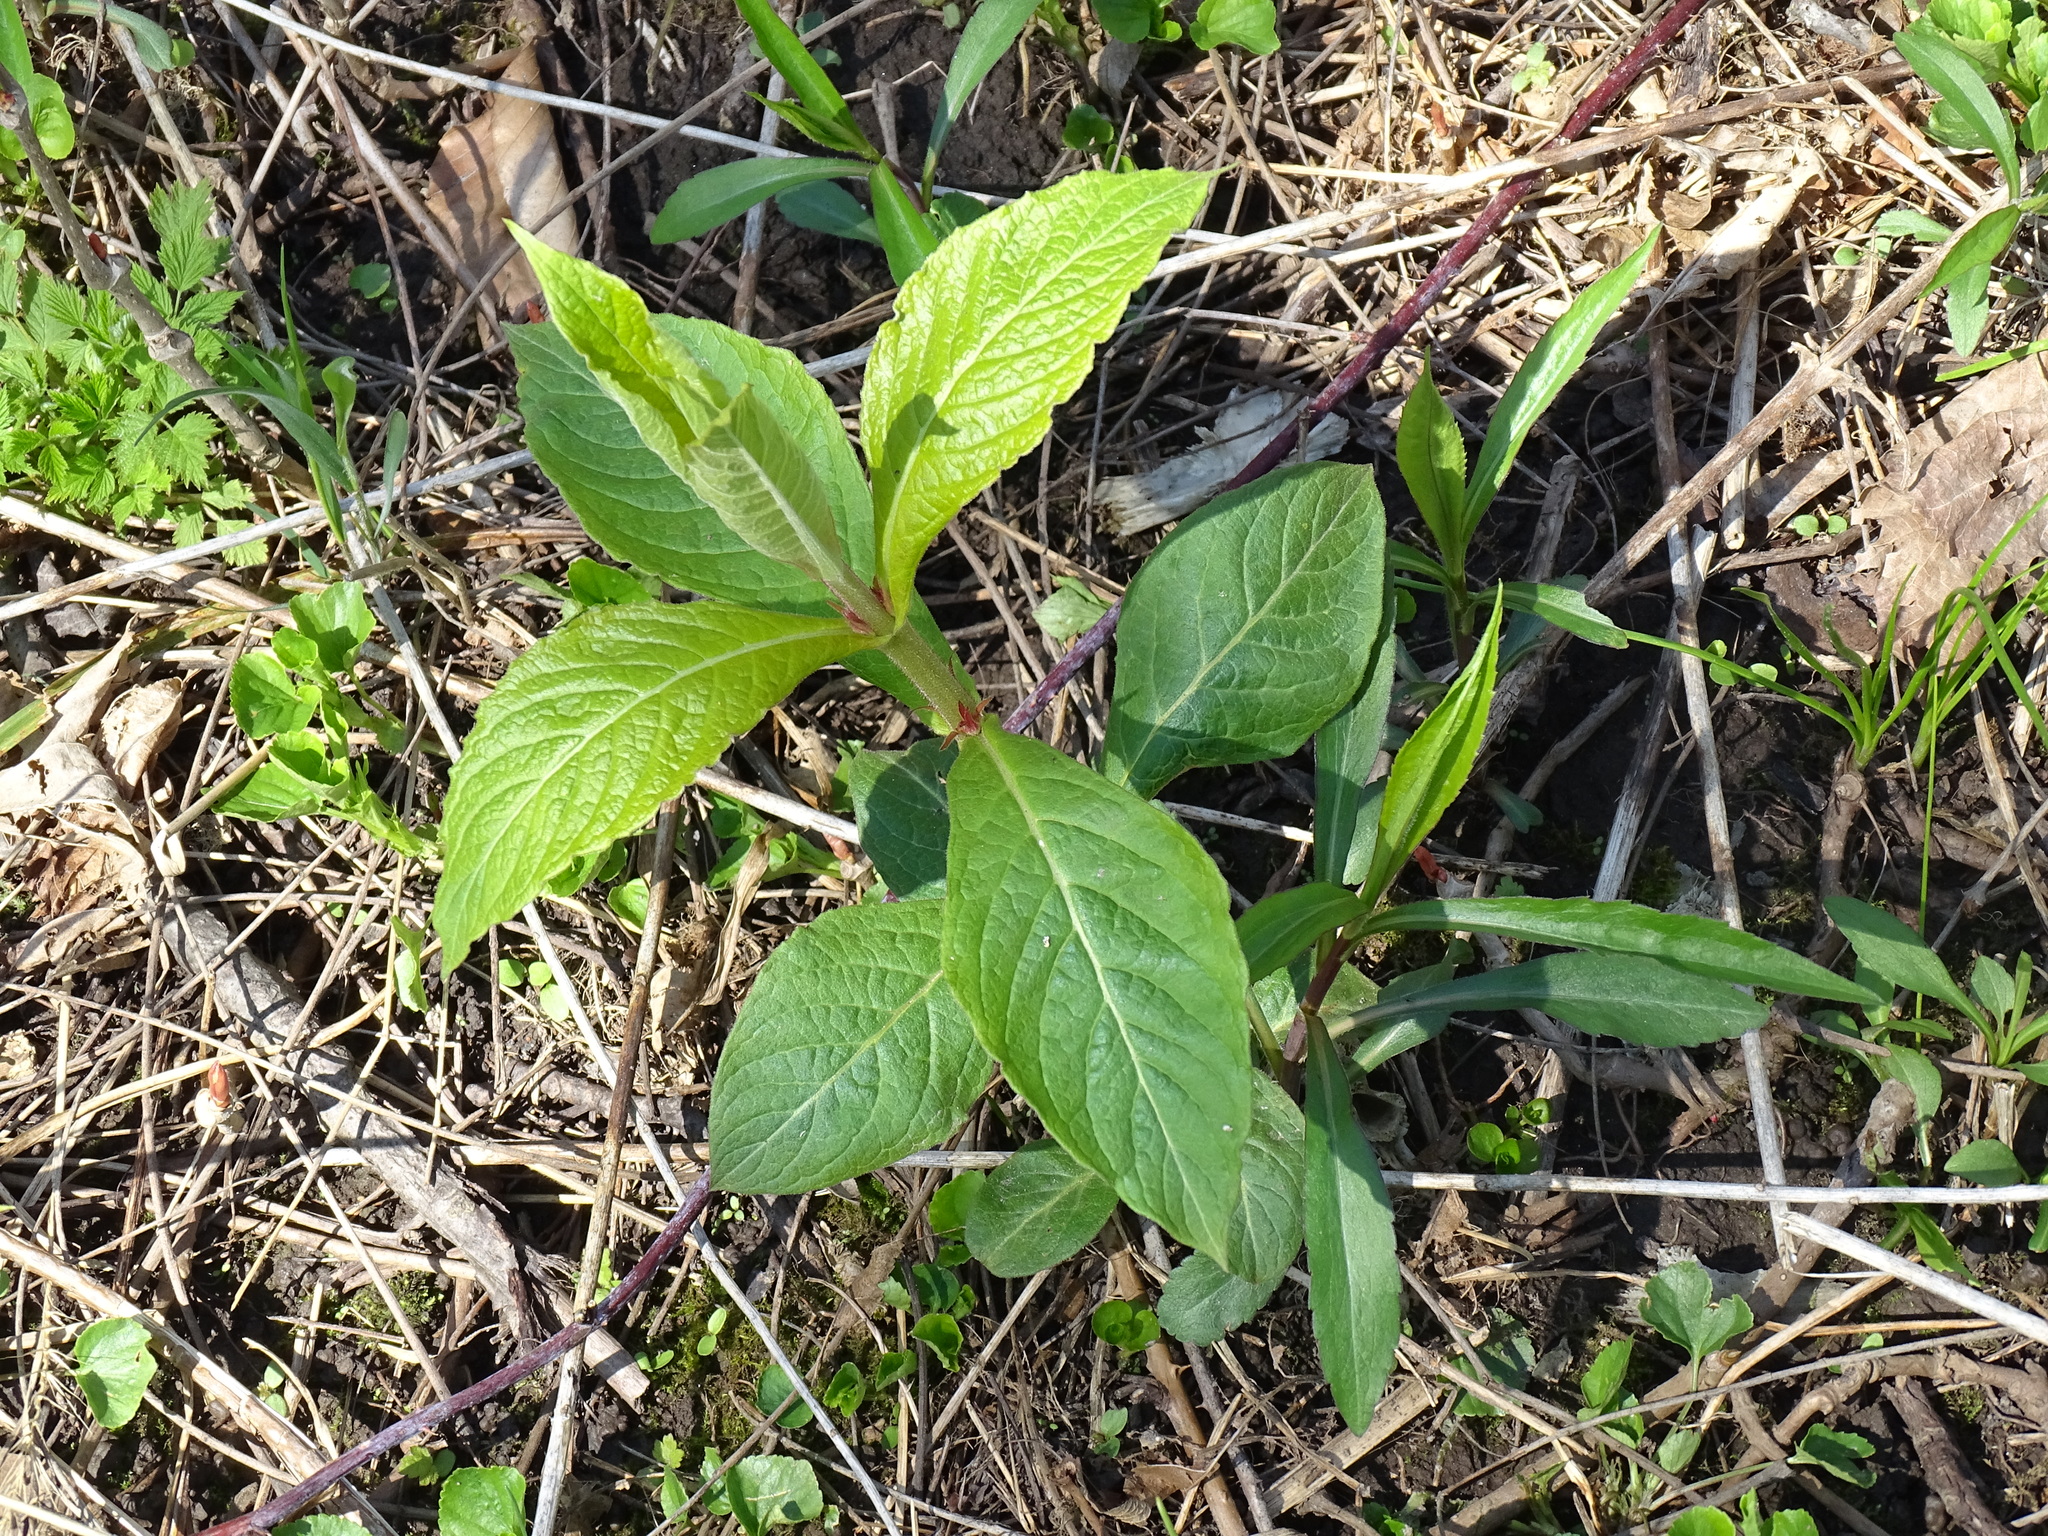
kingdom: Plantae
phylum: Tracheophyta
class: Magnoliopsida
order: Dipsacales
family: Caprifoliaceae
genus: Triosteum
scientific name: Triosteum aurantiacum
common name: Coffee tinker's-weed
